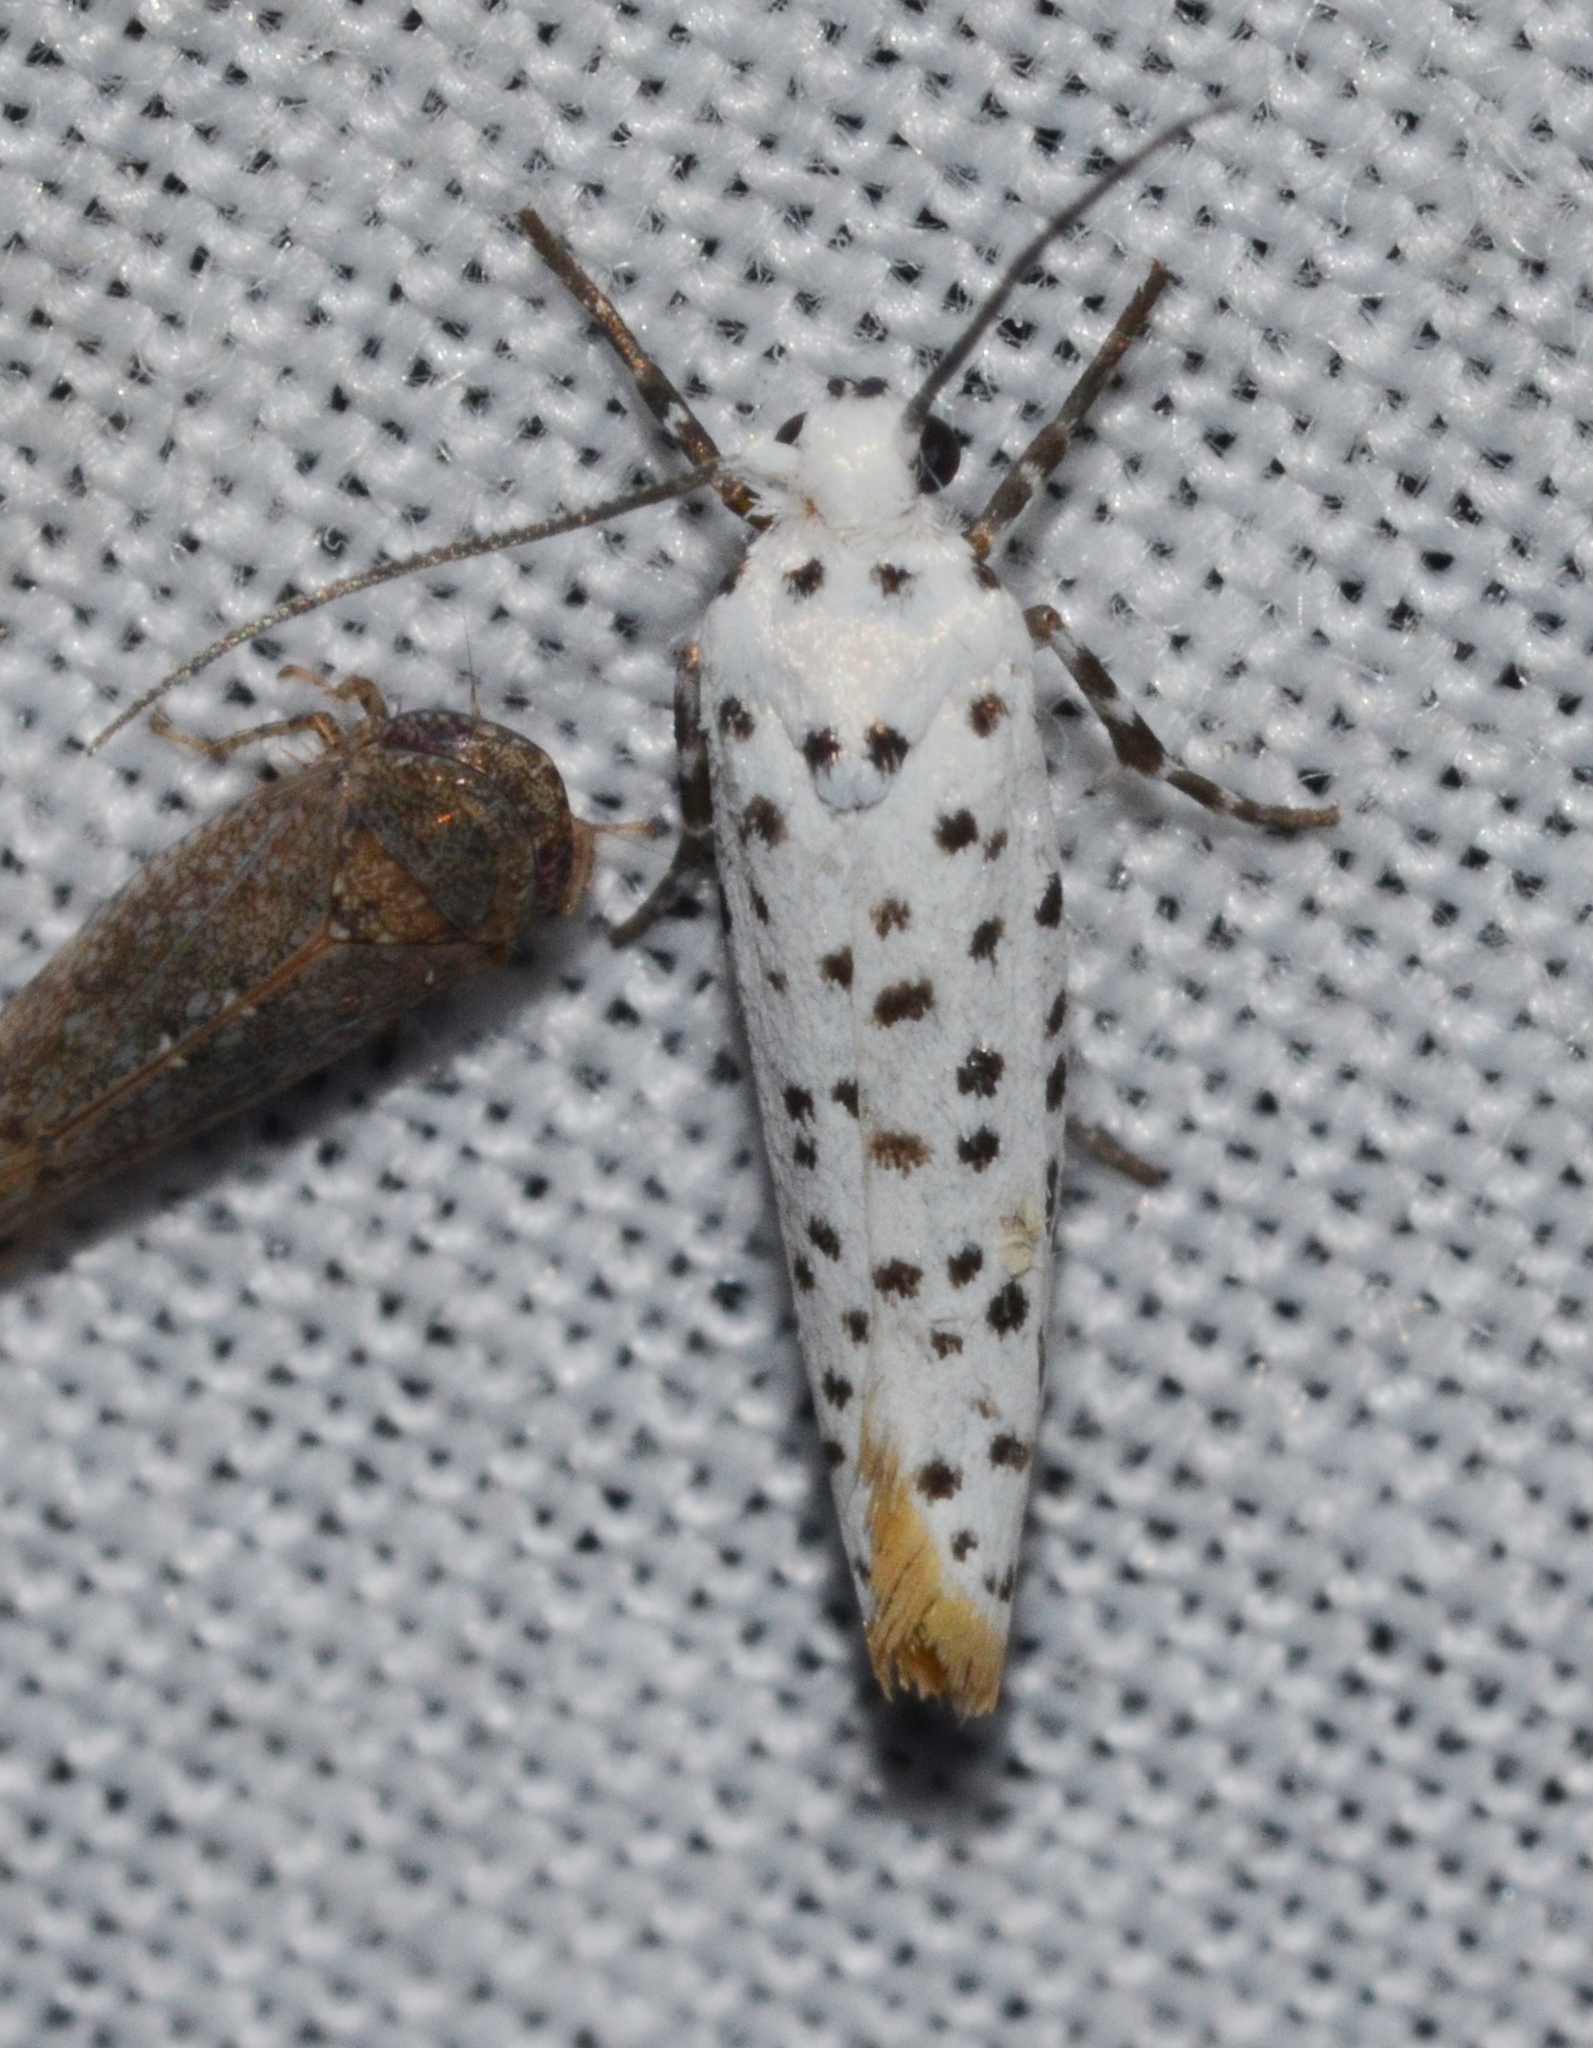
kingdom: Animalia
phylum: Arthropoda
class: Insecta
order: Lepidoptera
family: Praydidae
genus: Prays
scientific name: Prays atomocella
